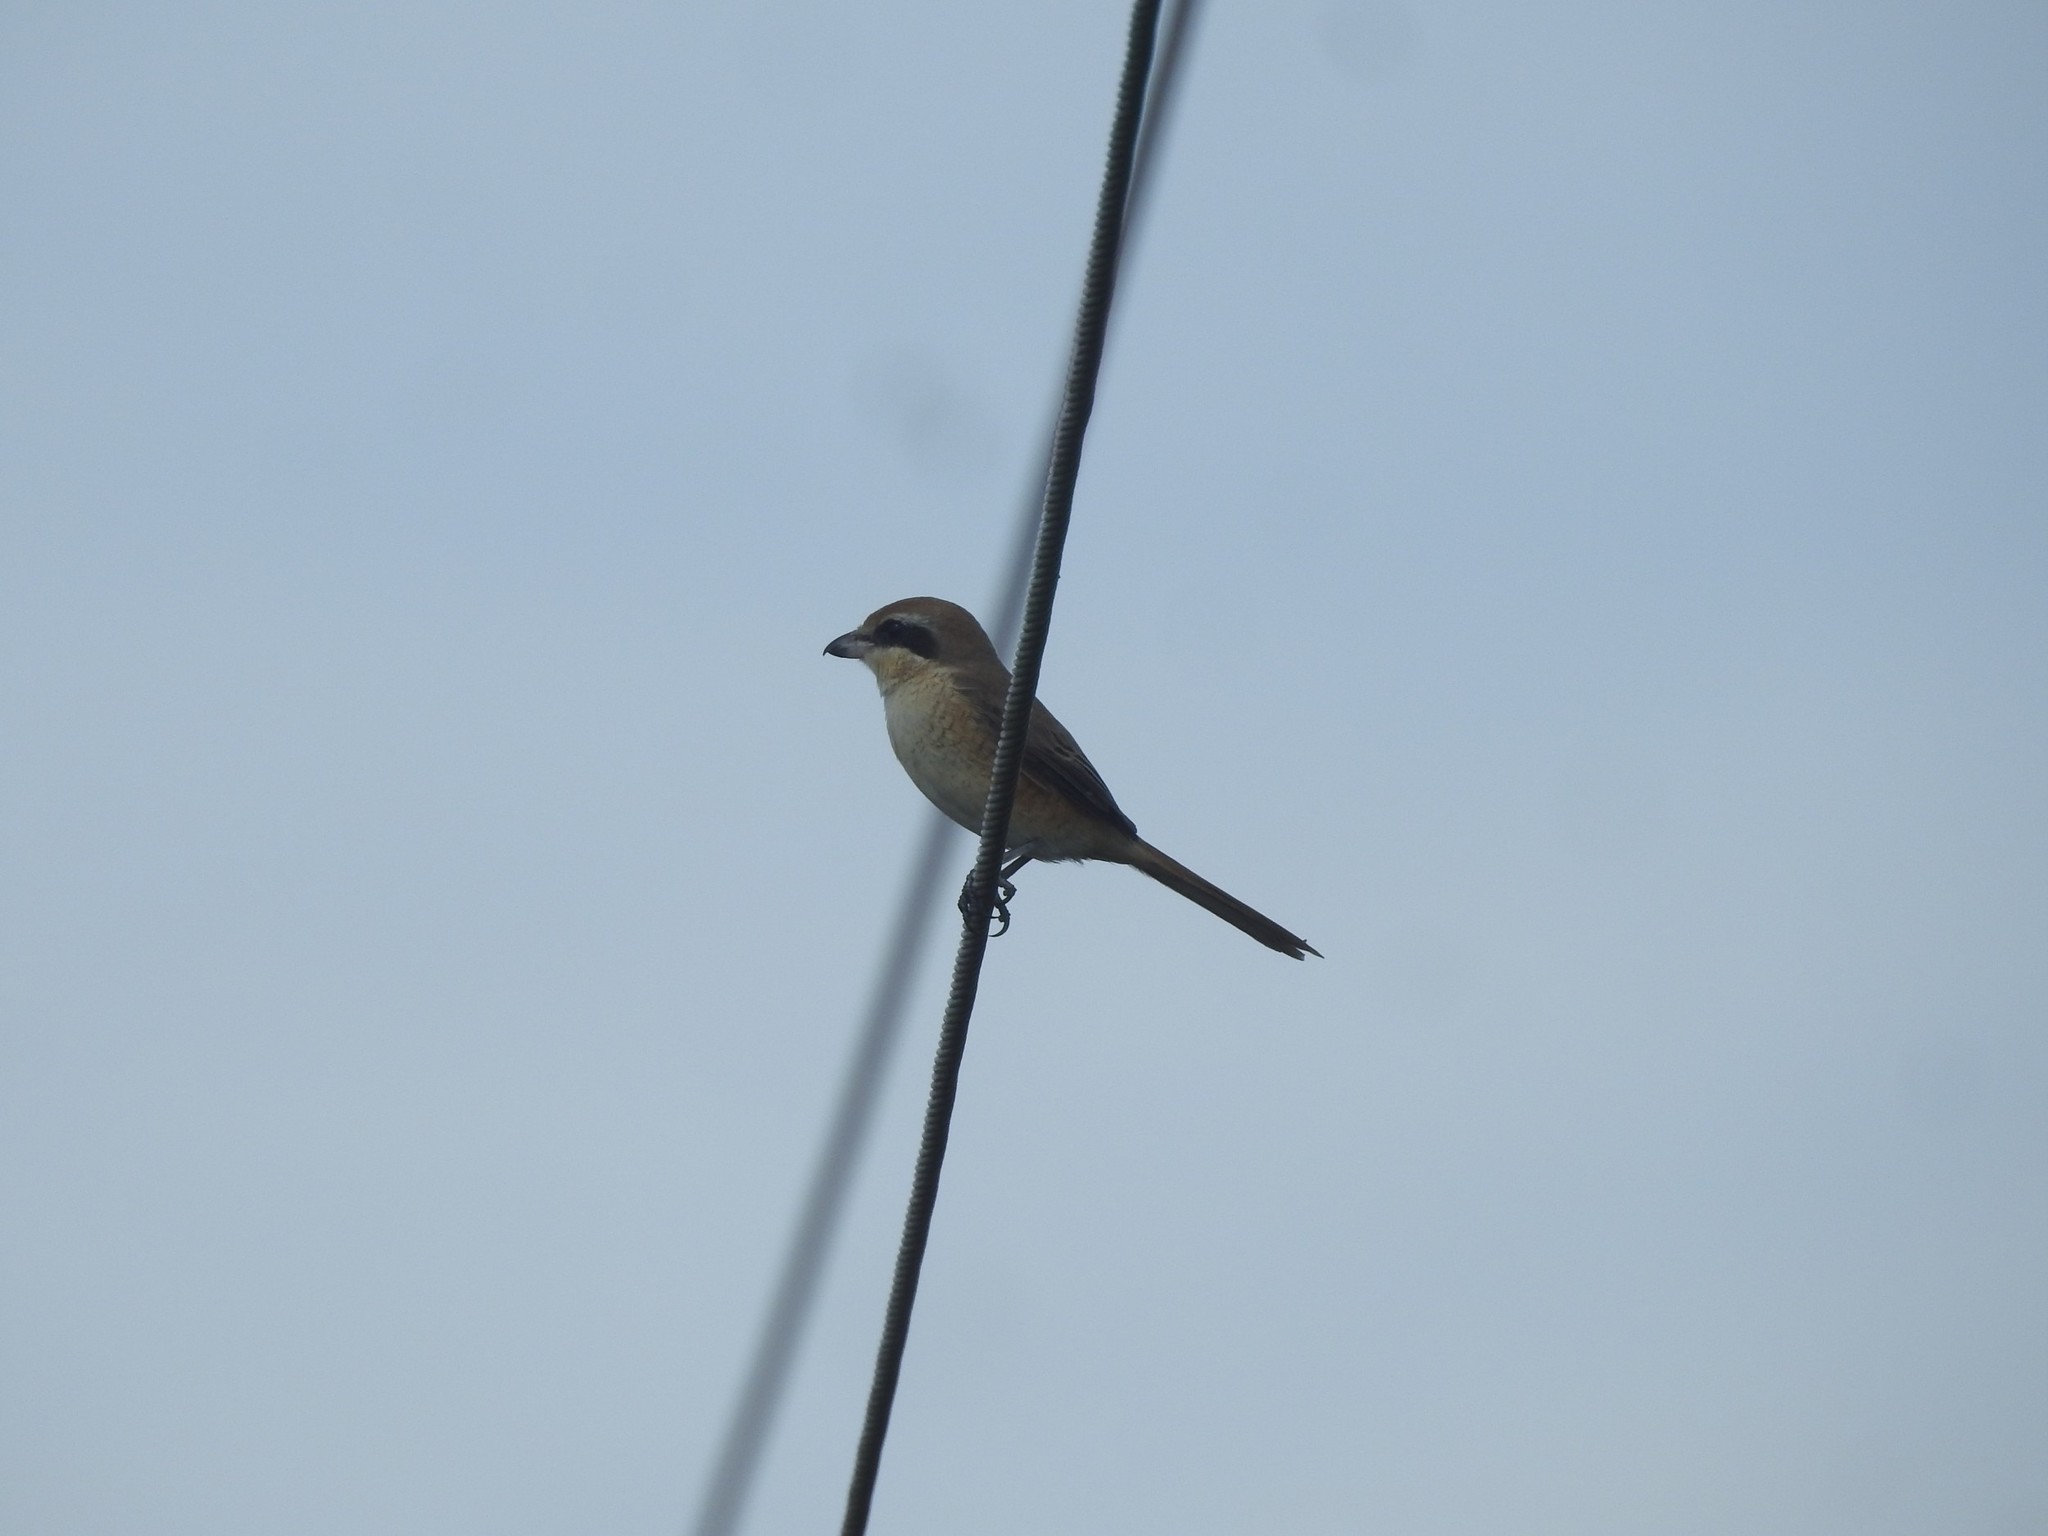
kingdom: Animalia
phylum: Chordata
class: Aves
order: Passeriformes
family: Laniidae
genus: Lanius
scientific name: Lanius cristatus
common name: Brown shrike
